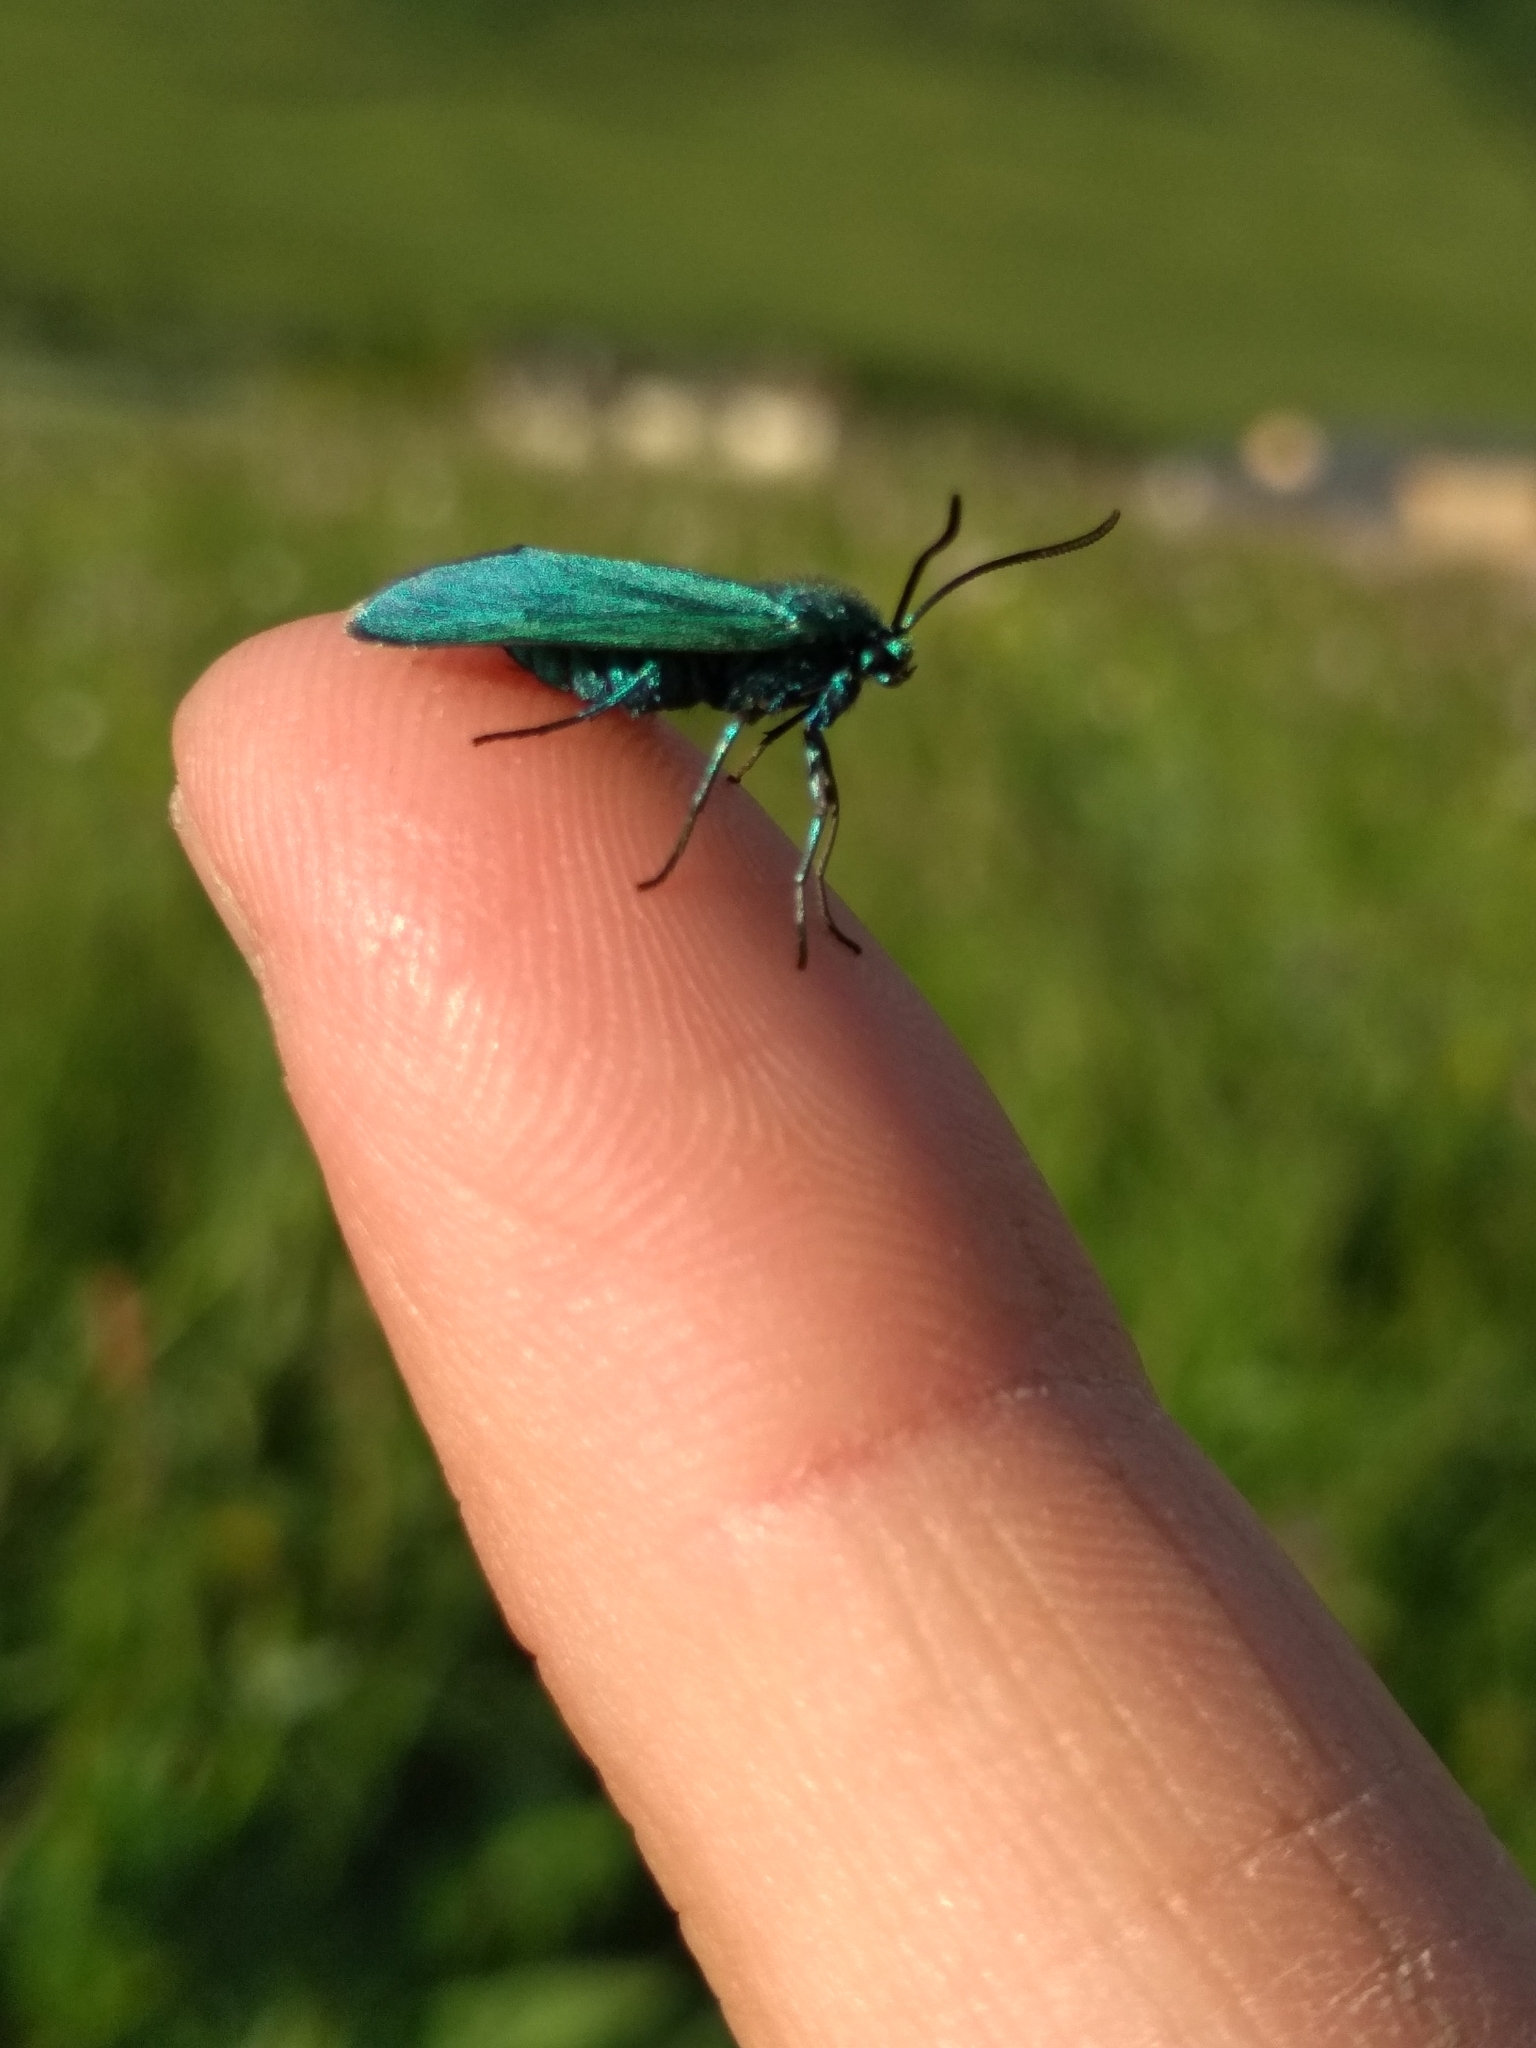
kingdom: Animalia
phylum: Arthropoda
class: Insecta
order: Lepidoptera
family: Zygaenidae
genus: Adscita
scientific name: Adscita statices
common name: Forester
